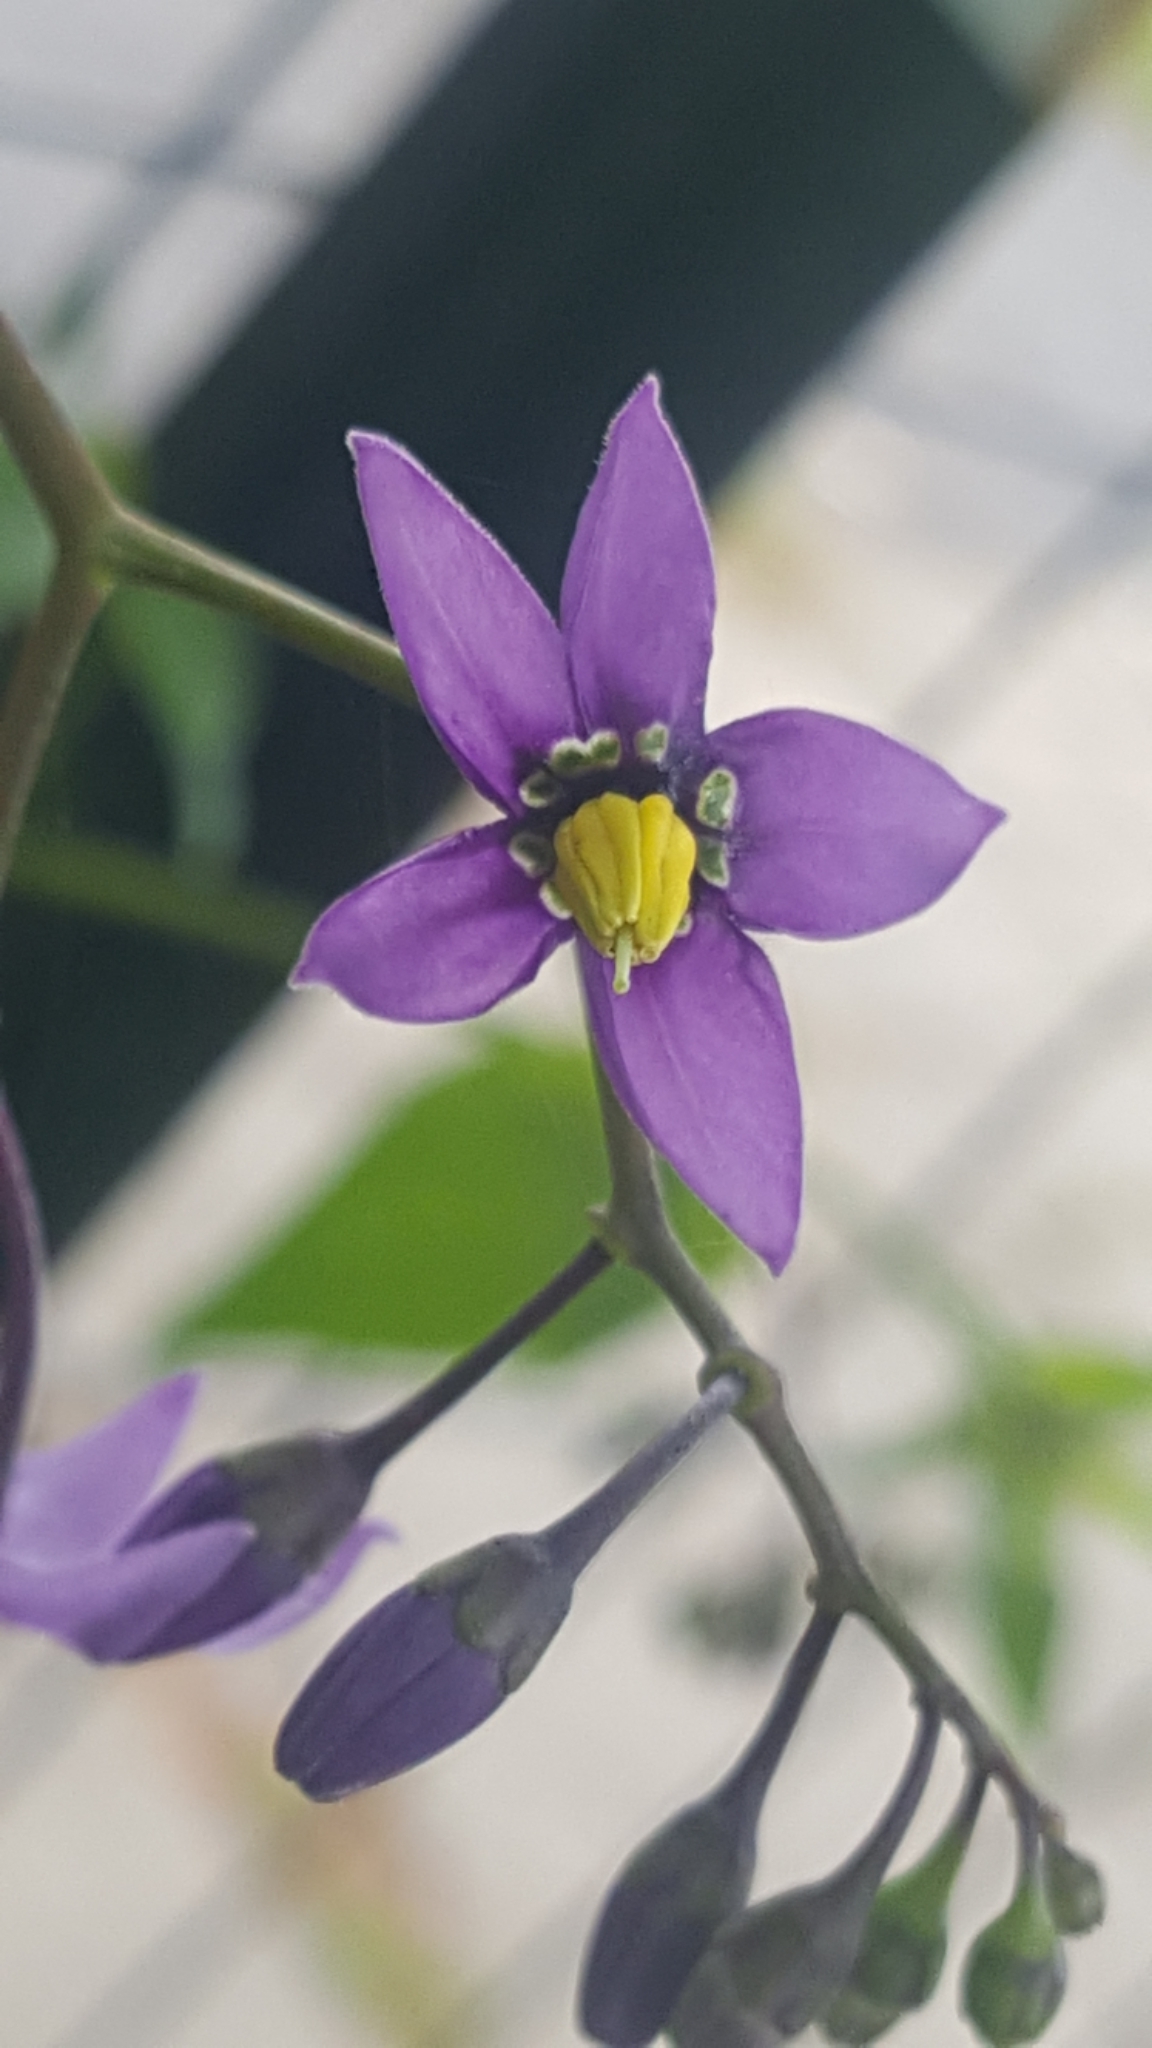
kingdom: Plantae
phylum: Tracheophyta
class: Magnoliopsida
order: Solanales
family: Solanaceae
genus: Solanum
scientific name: Solanum dulcamara
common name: Climbing nightshade
